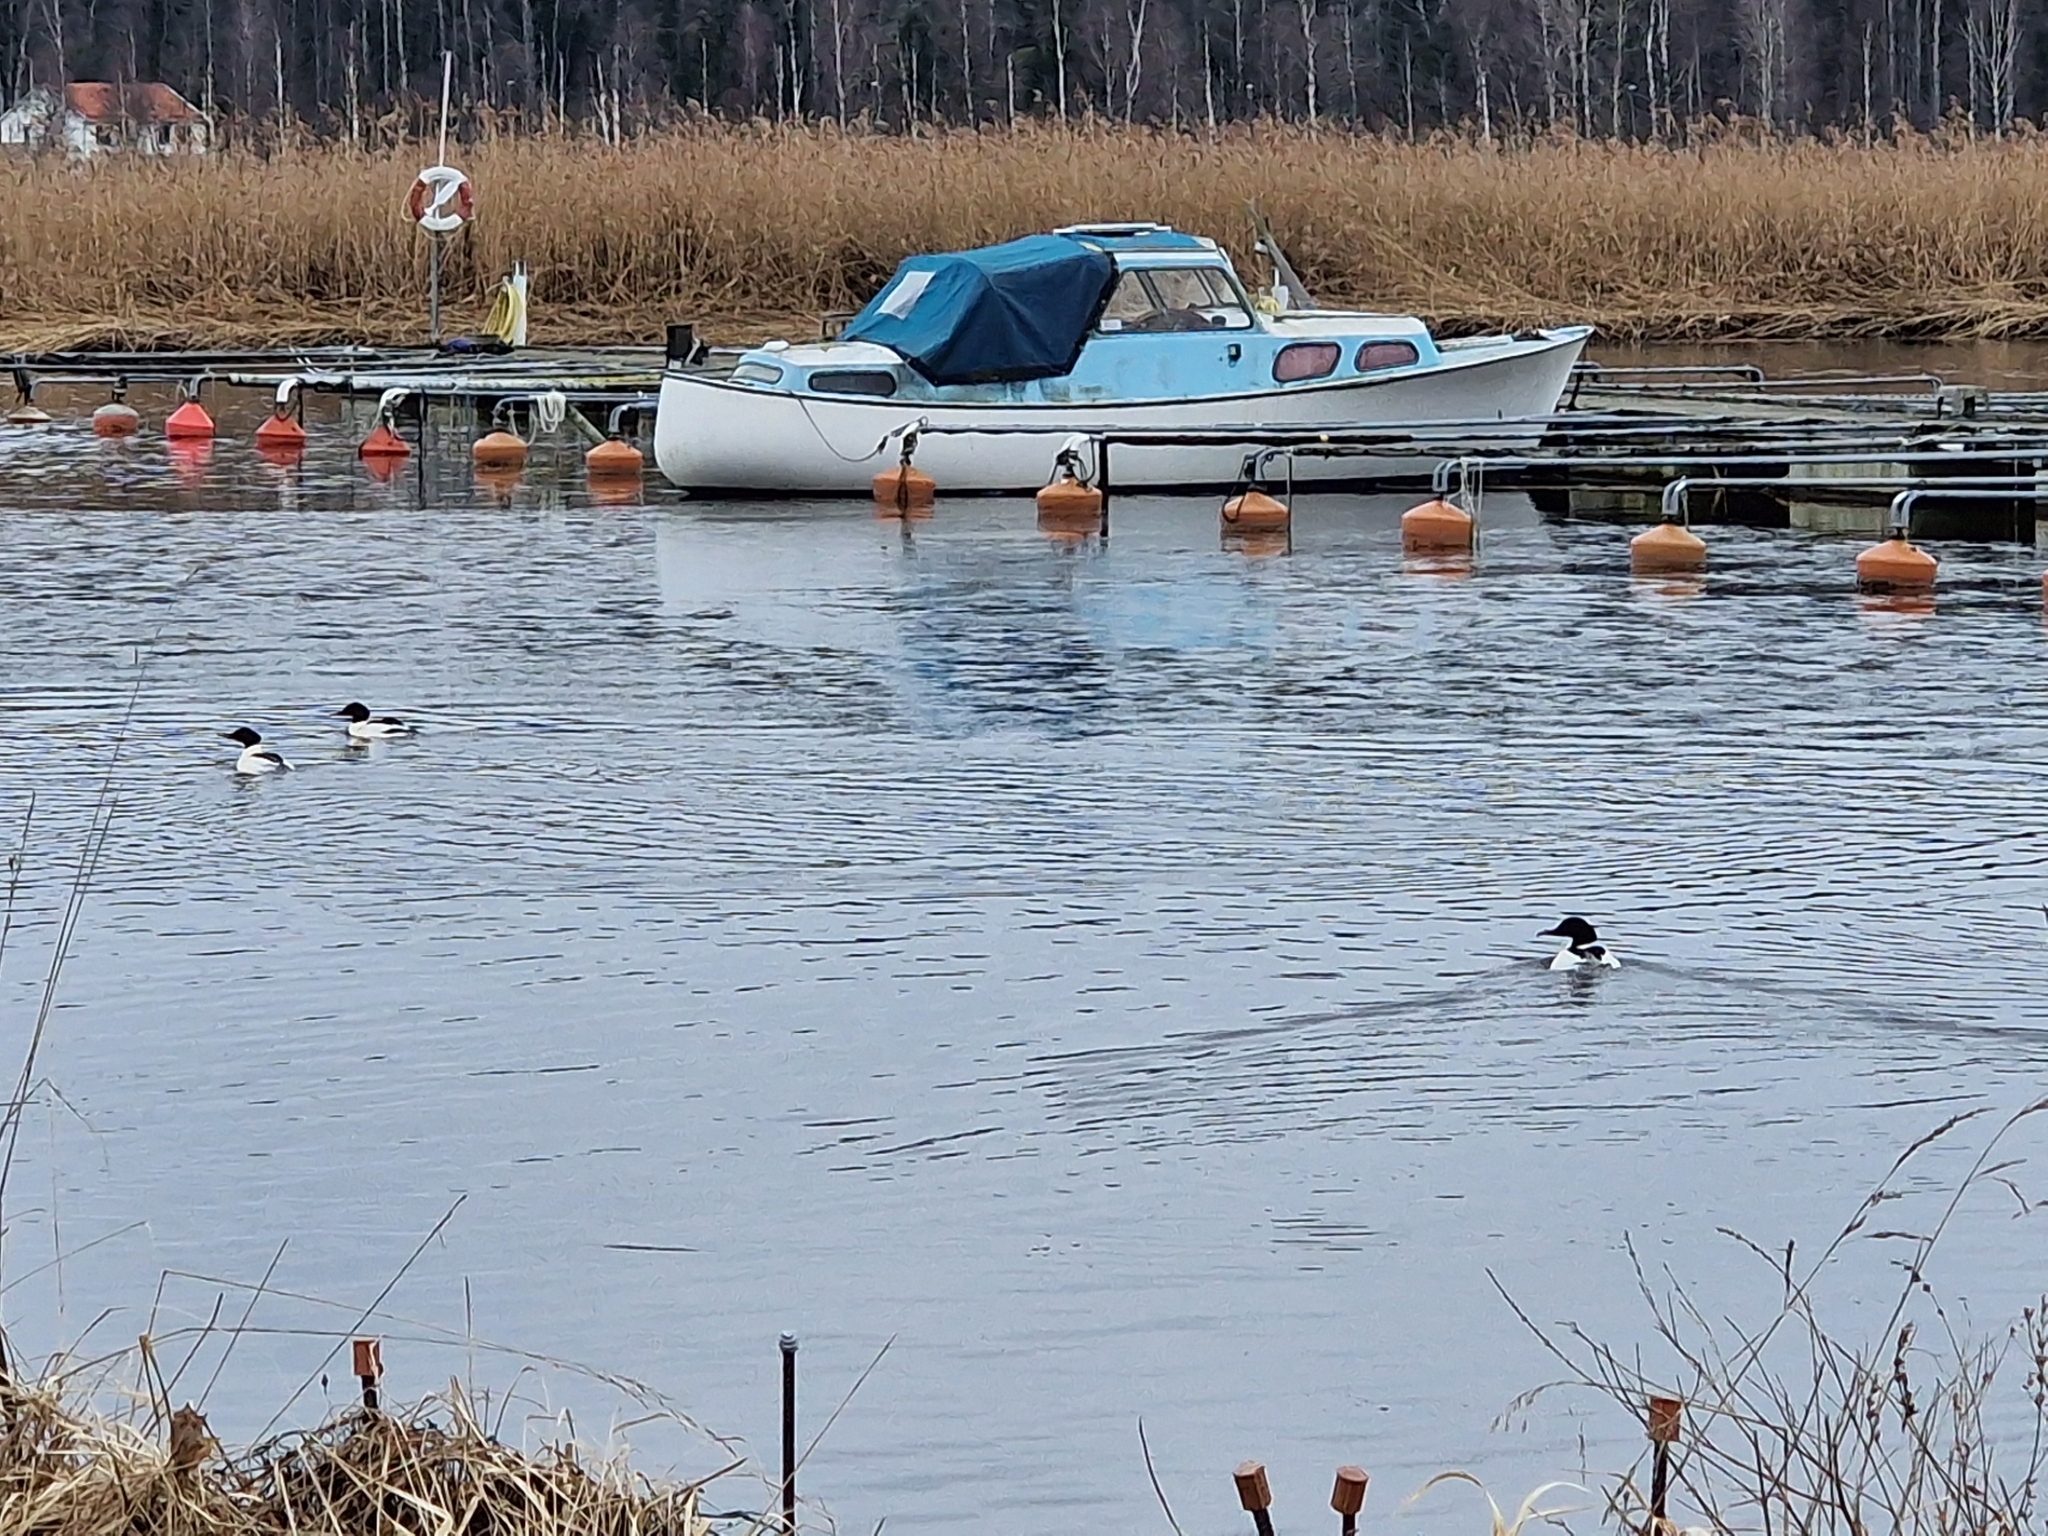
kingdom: Animalia
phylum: Chordata
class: Aves
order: Anseriformes
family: Anatidae
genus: Mergus
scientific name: Mergus merganser
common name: Common merganser
